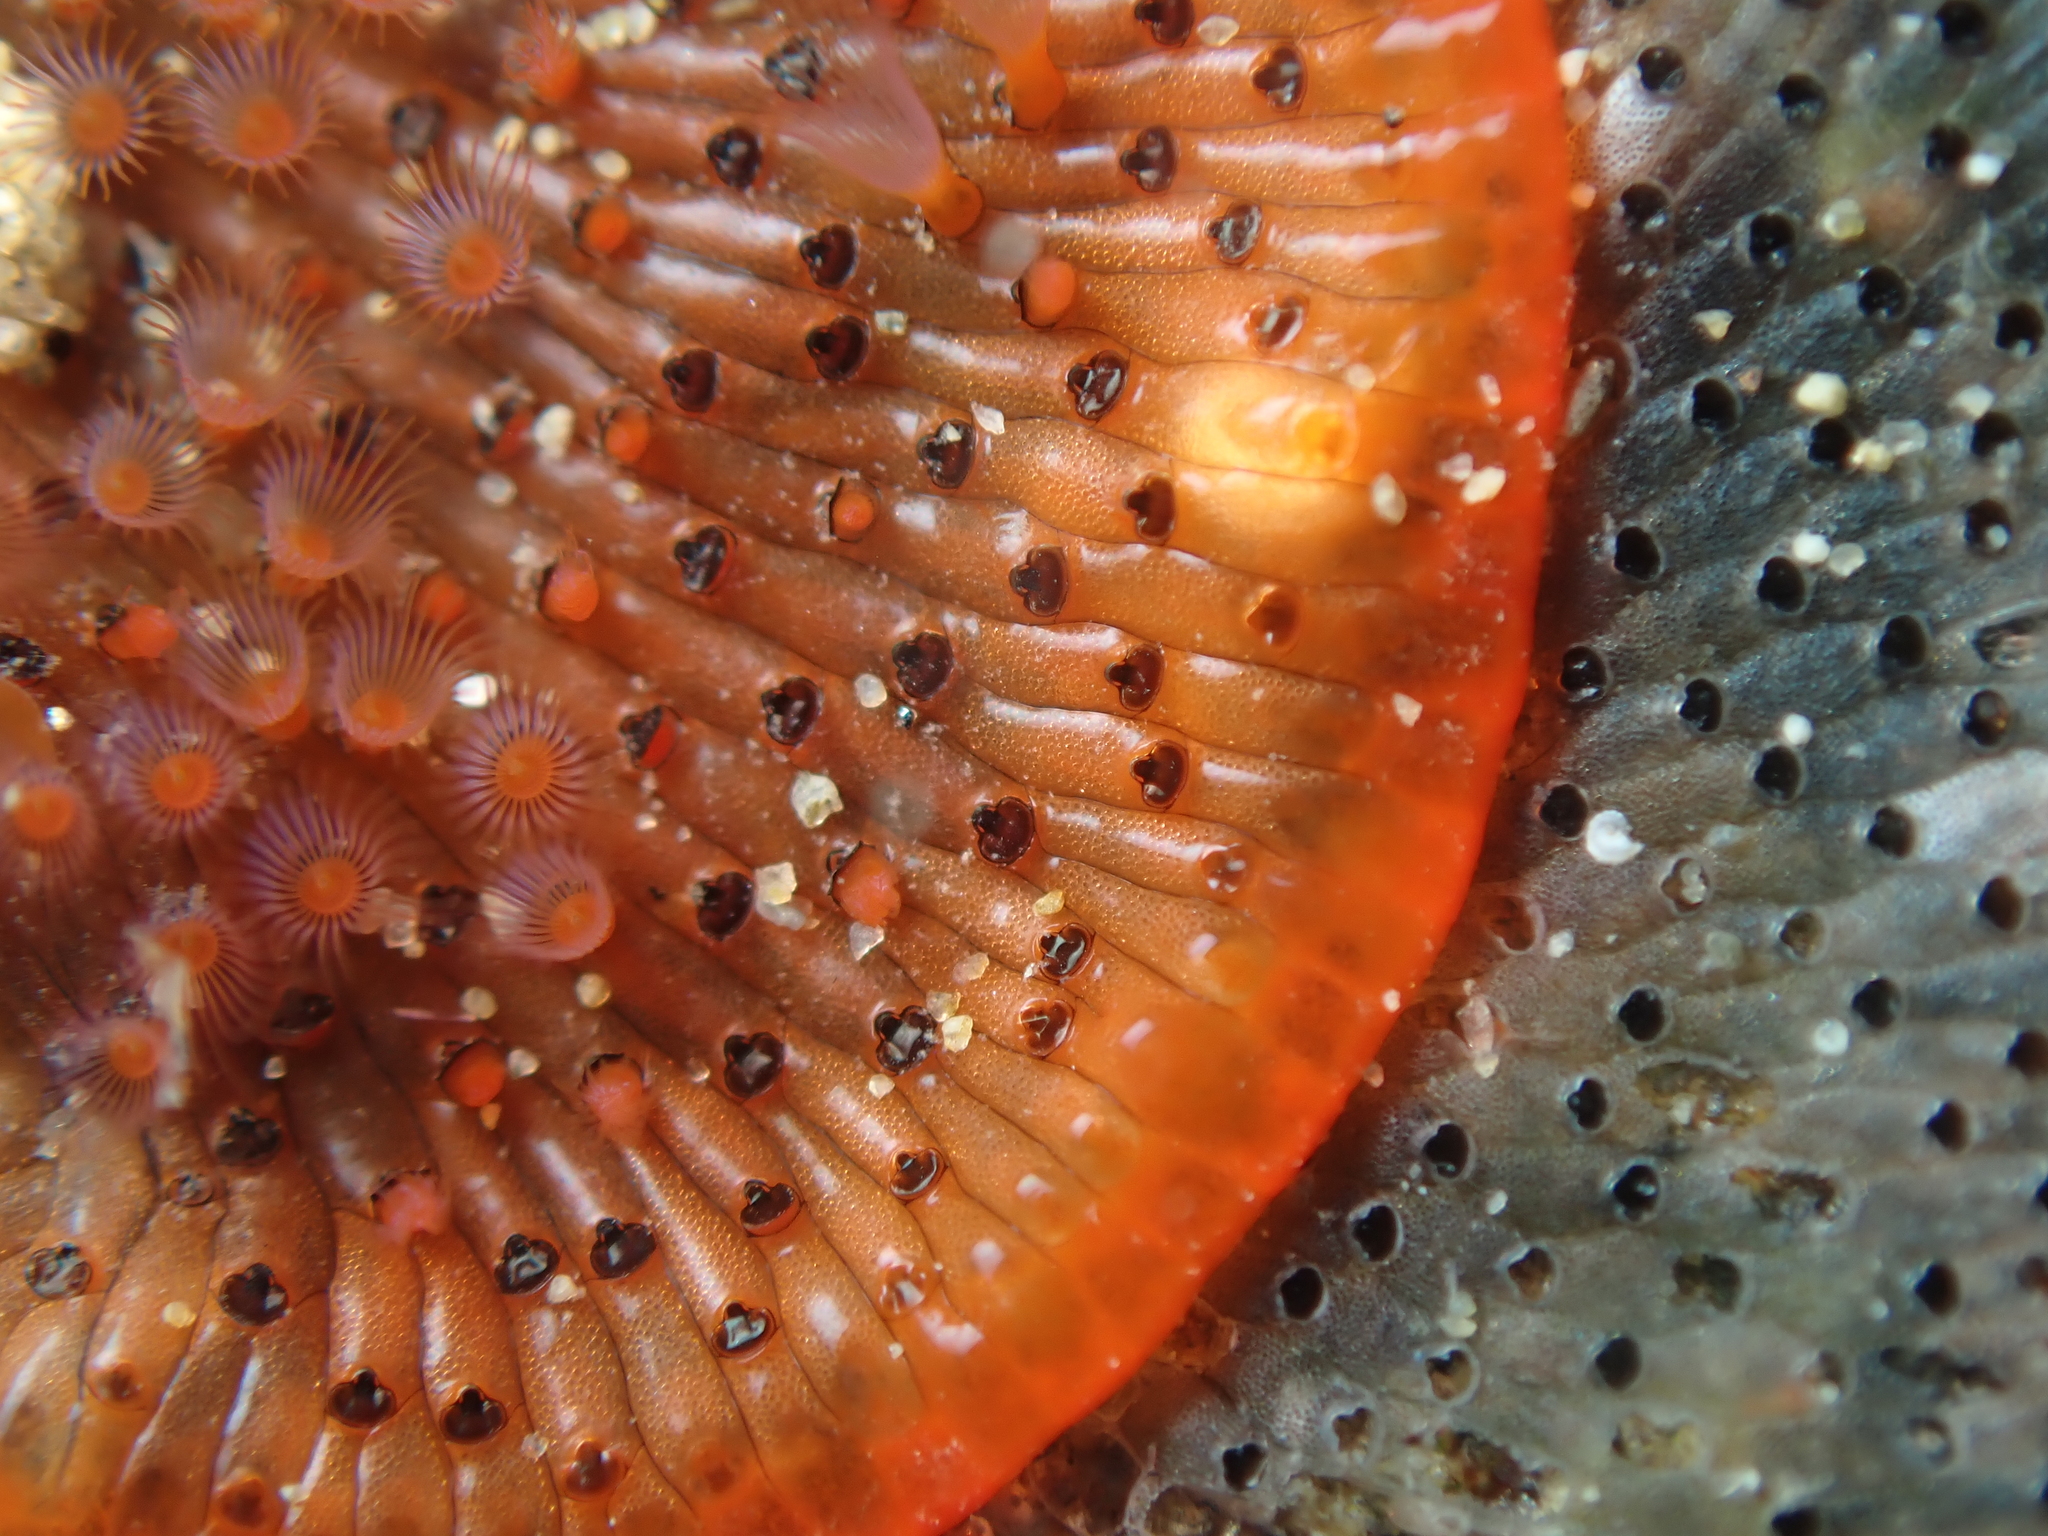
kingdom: Animalia
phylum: Bryozoa
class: Gymnolaemata
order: Cheilostomatida
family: Watersiporidae
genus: Watersipora
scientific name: Watersipora subatra
